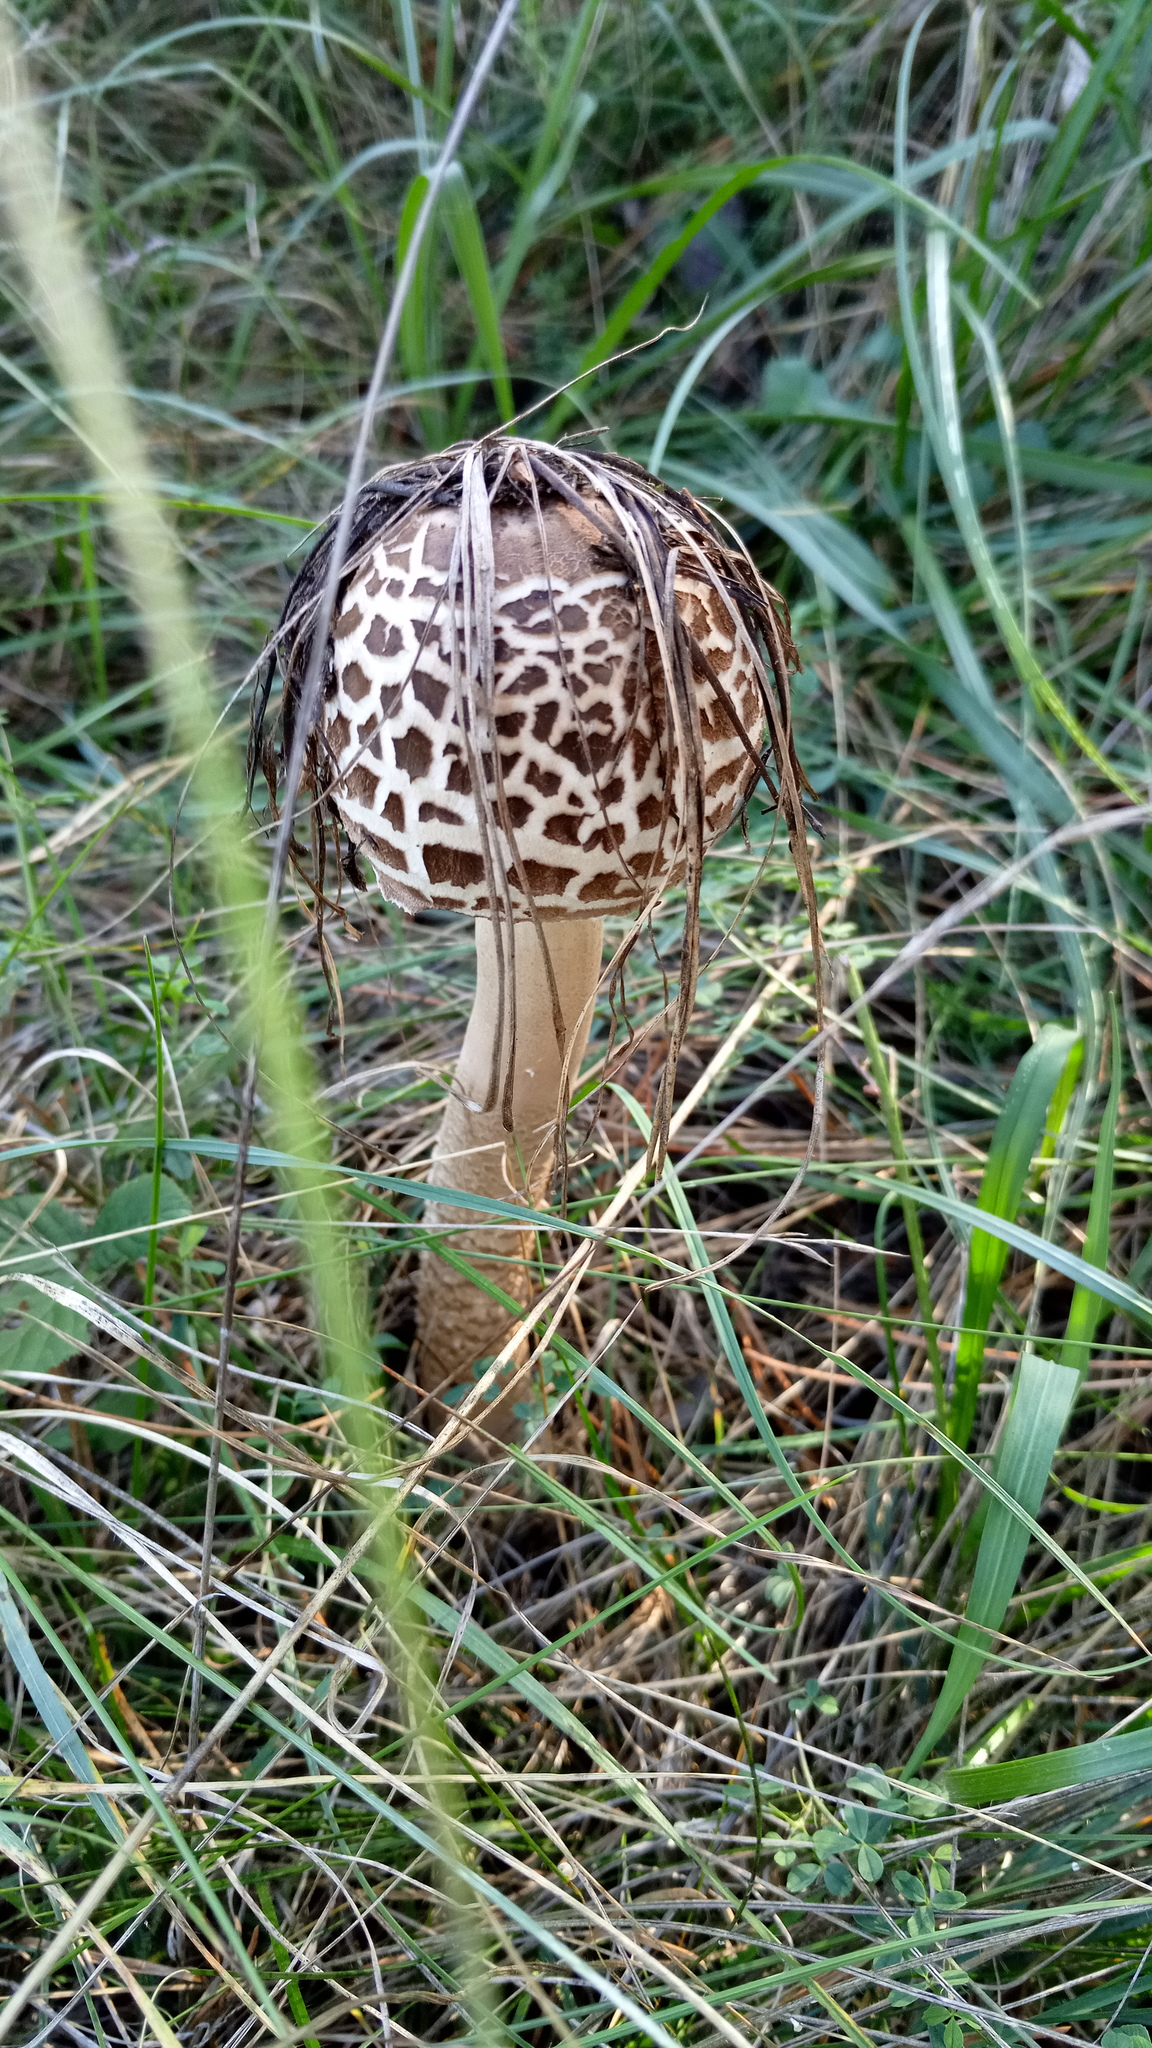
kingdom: Fungi
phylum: Basidiomycota
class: Agaricomycetes
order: Agaricales
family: Agaricaceae
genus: Macrolepiota
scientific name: Macrolepiota procera
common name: Parasol
